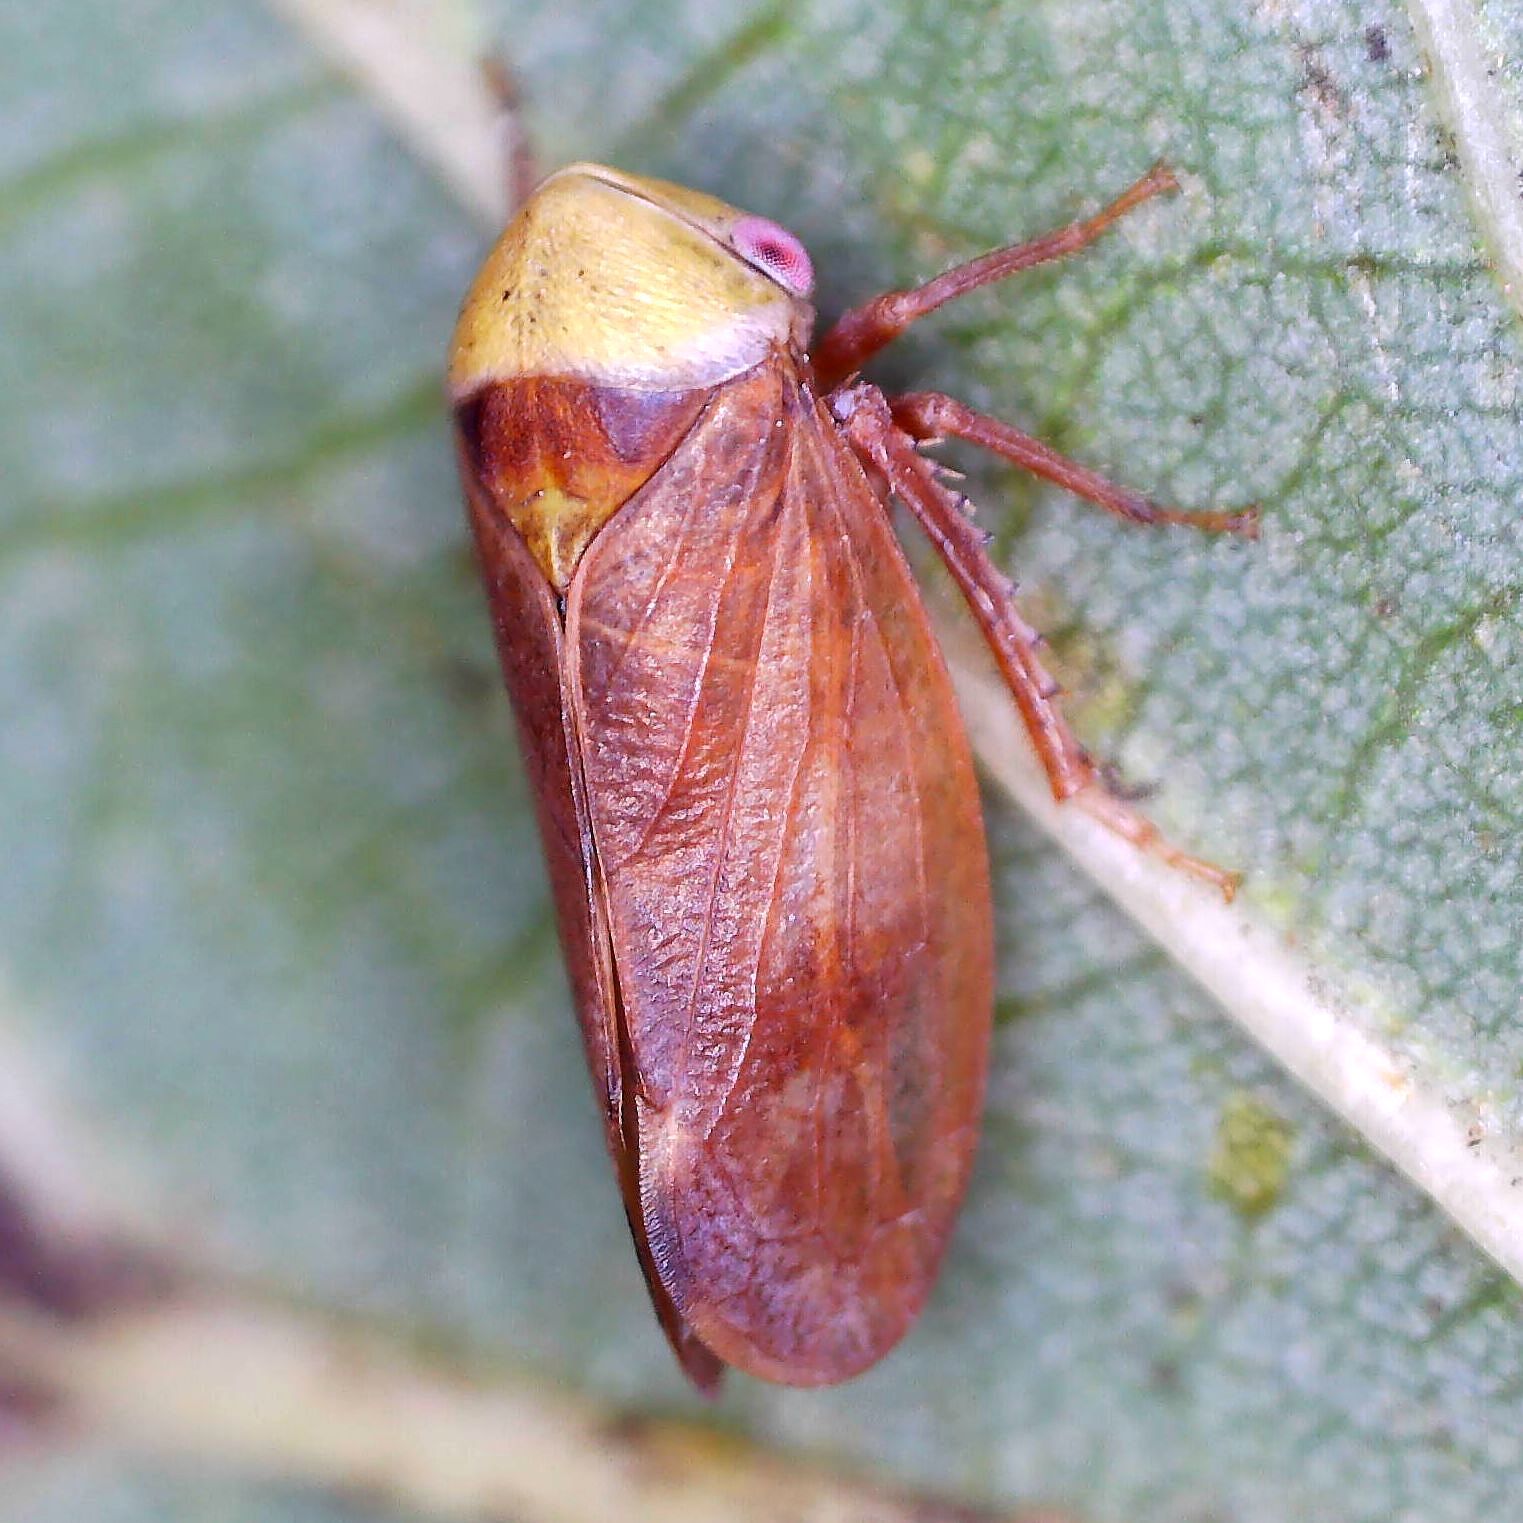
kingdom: Animalia
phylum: Arthropoda
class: Insecta
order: Hemiptera
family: Cicadellidae
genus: Pediopsis
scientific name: Pediopsis tiliae
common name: Leafhopper
